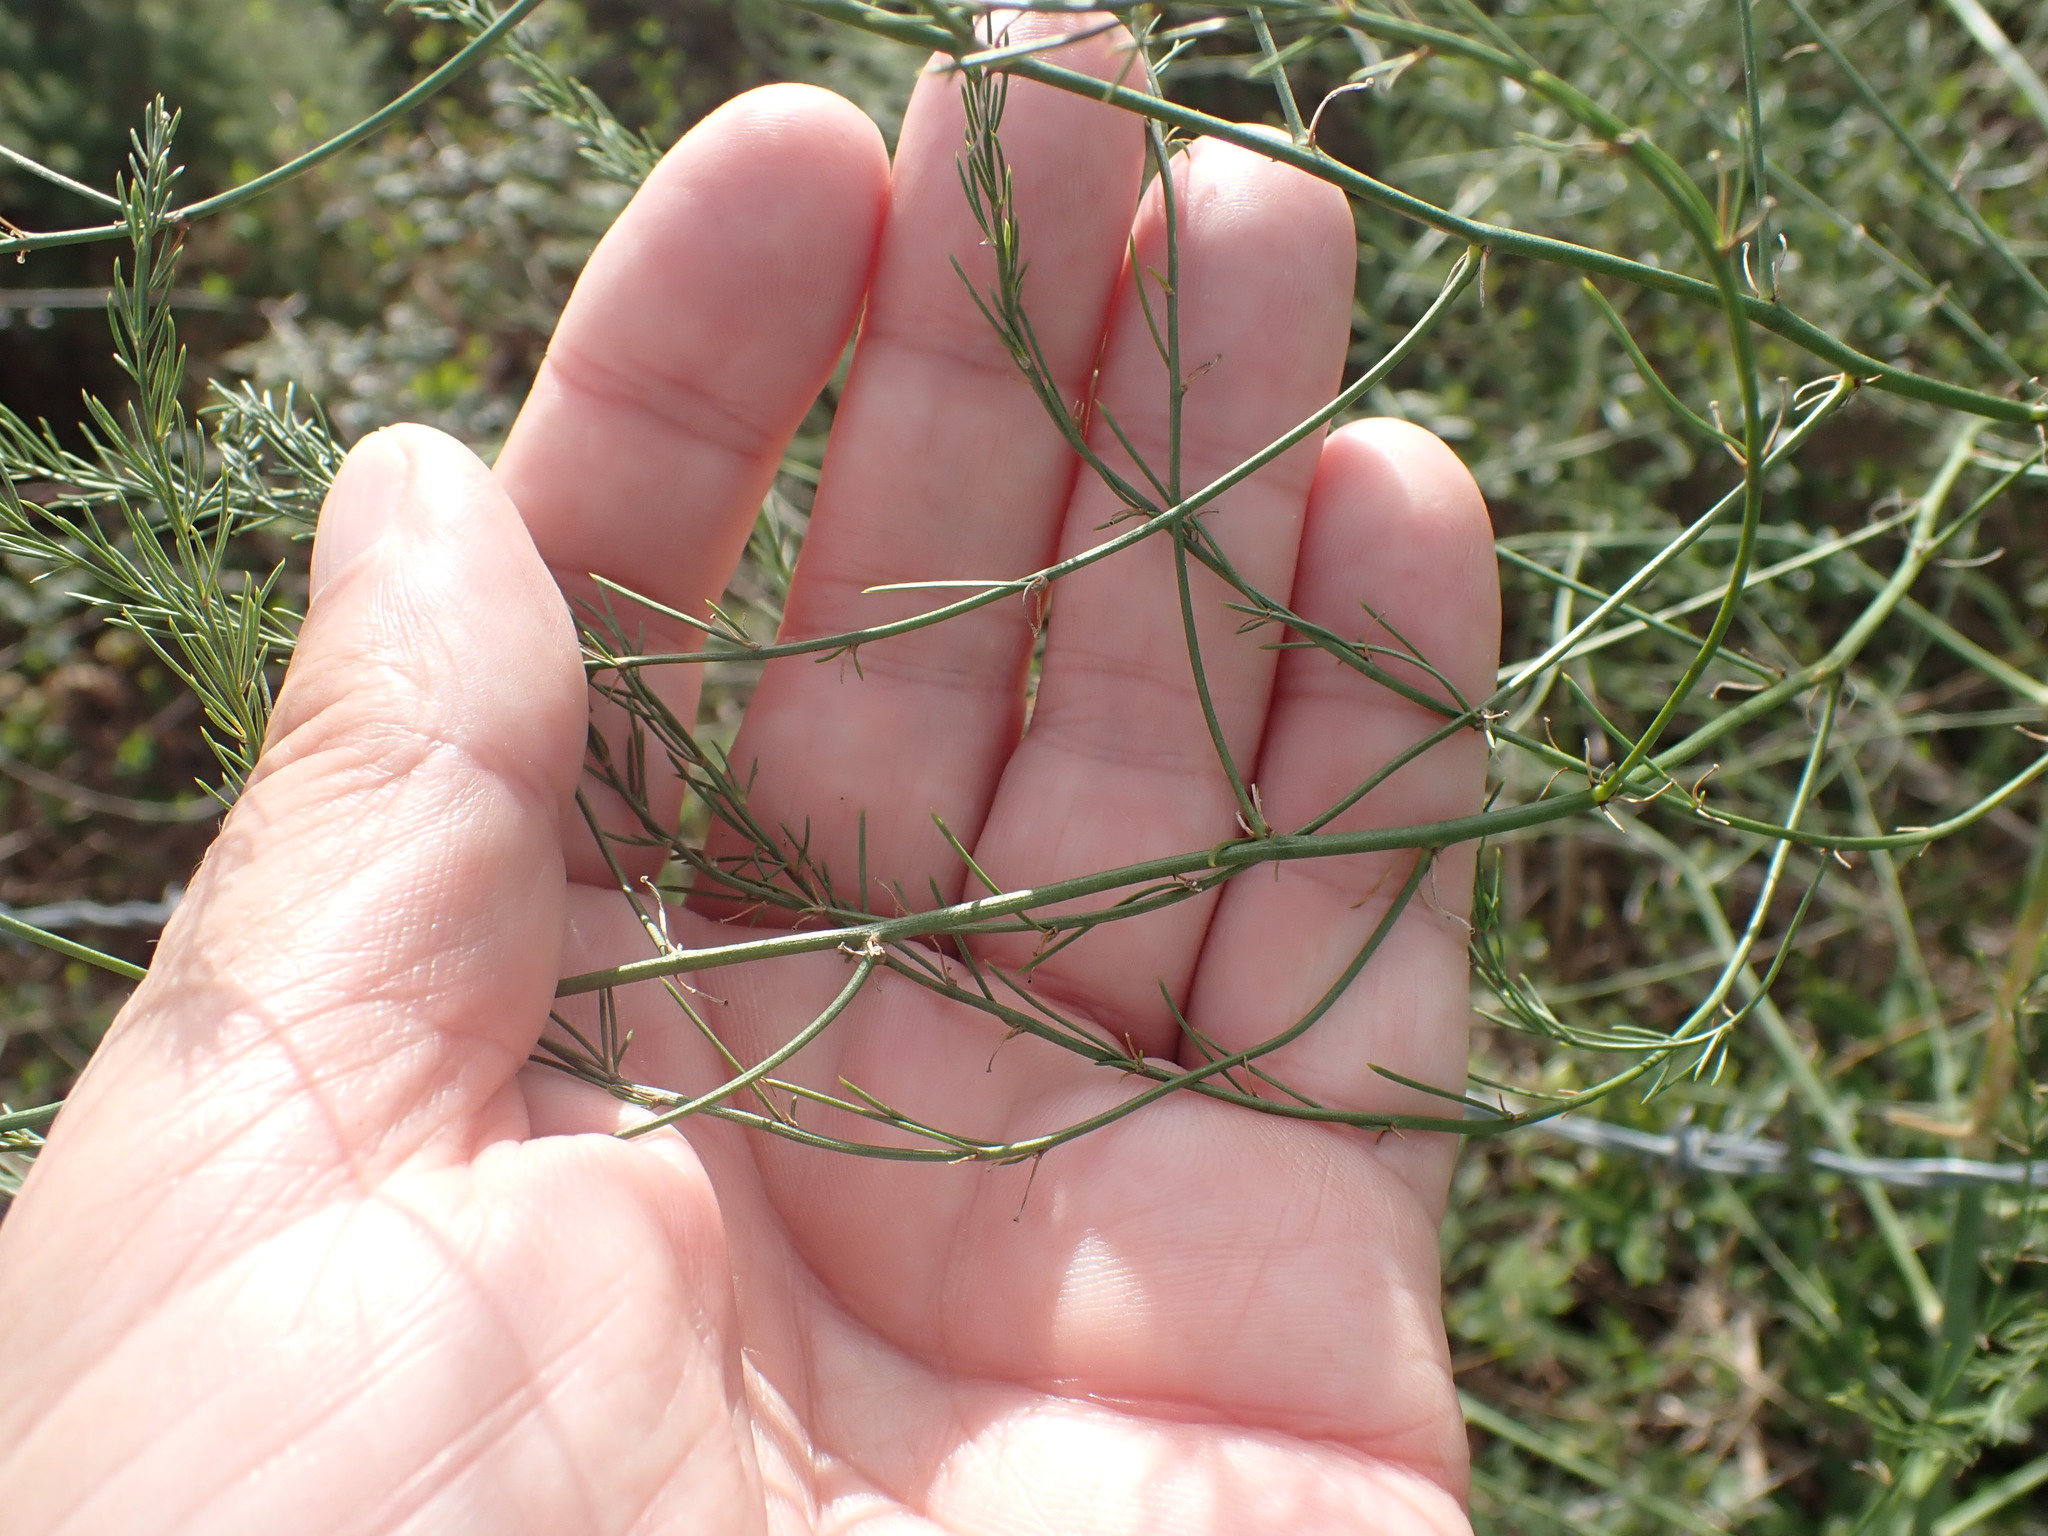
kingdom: Plantae
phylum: Tracheophyta
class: Liliopsida
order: Asparagales
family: Asparagaceae
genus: Asparagus
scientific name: Asparagus officinalis
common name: Garden asparagus
